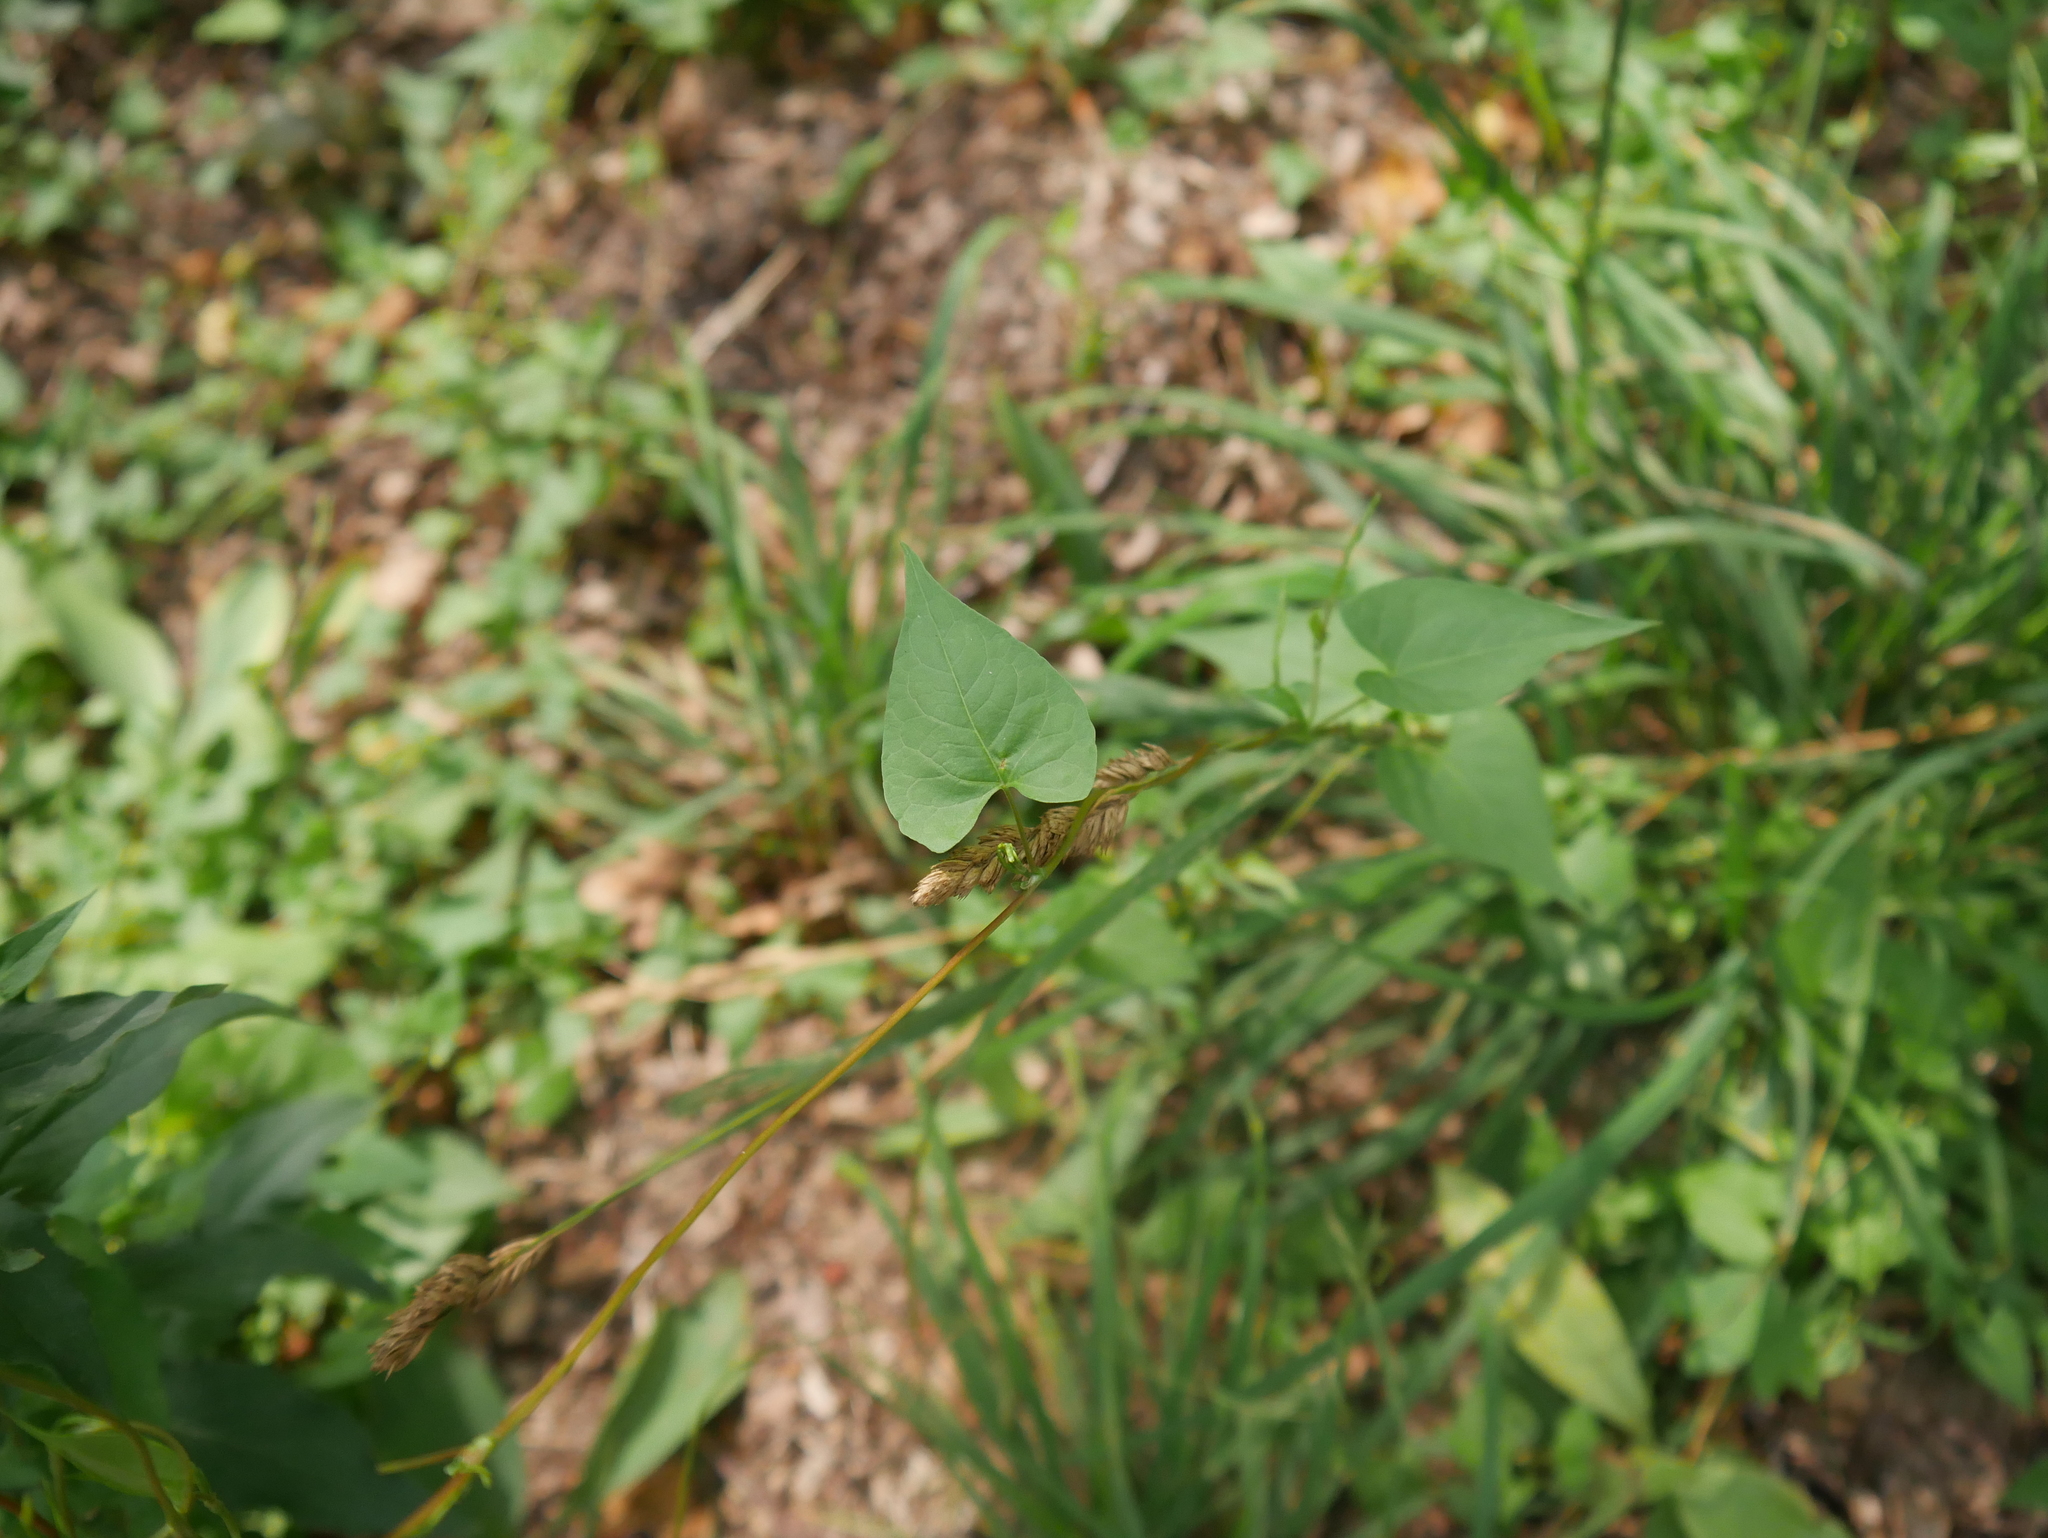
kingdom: Plantae
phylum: Tracheophyta
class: Magnoliopsida
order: Caryophyllales
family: Polygonaceae
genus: Fallopia
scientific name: Fallopia convolvulus
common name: Black bindweed
